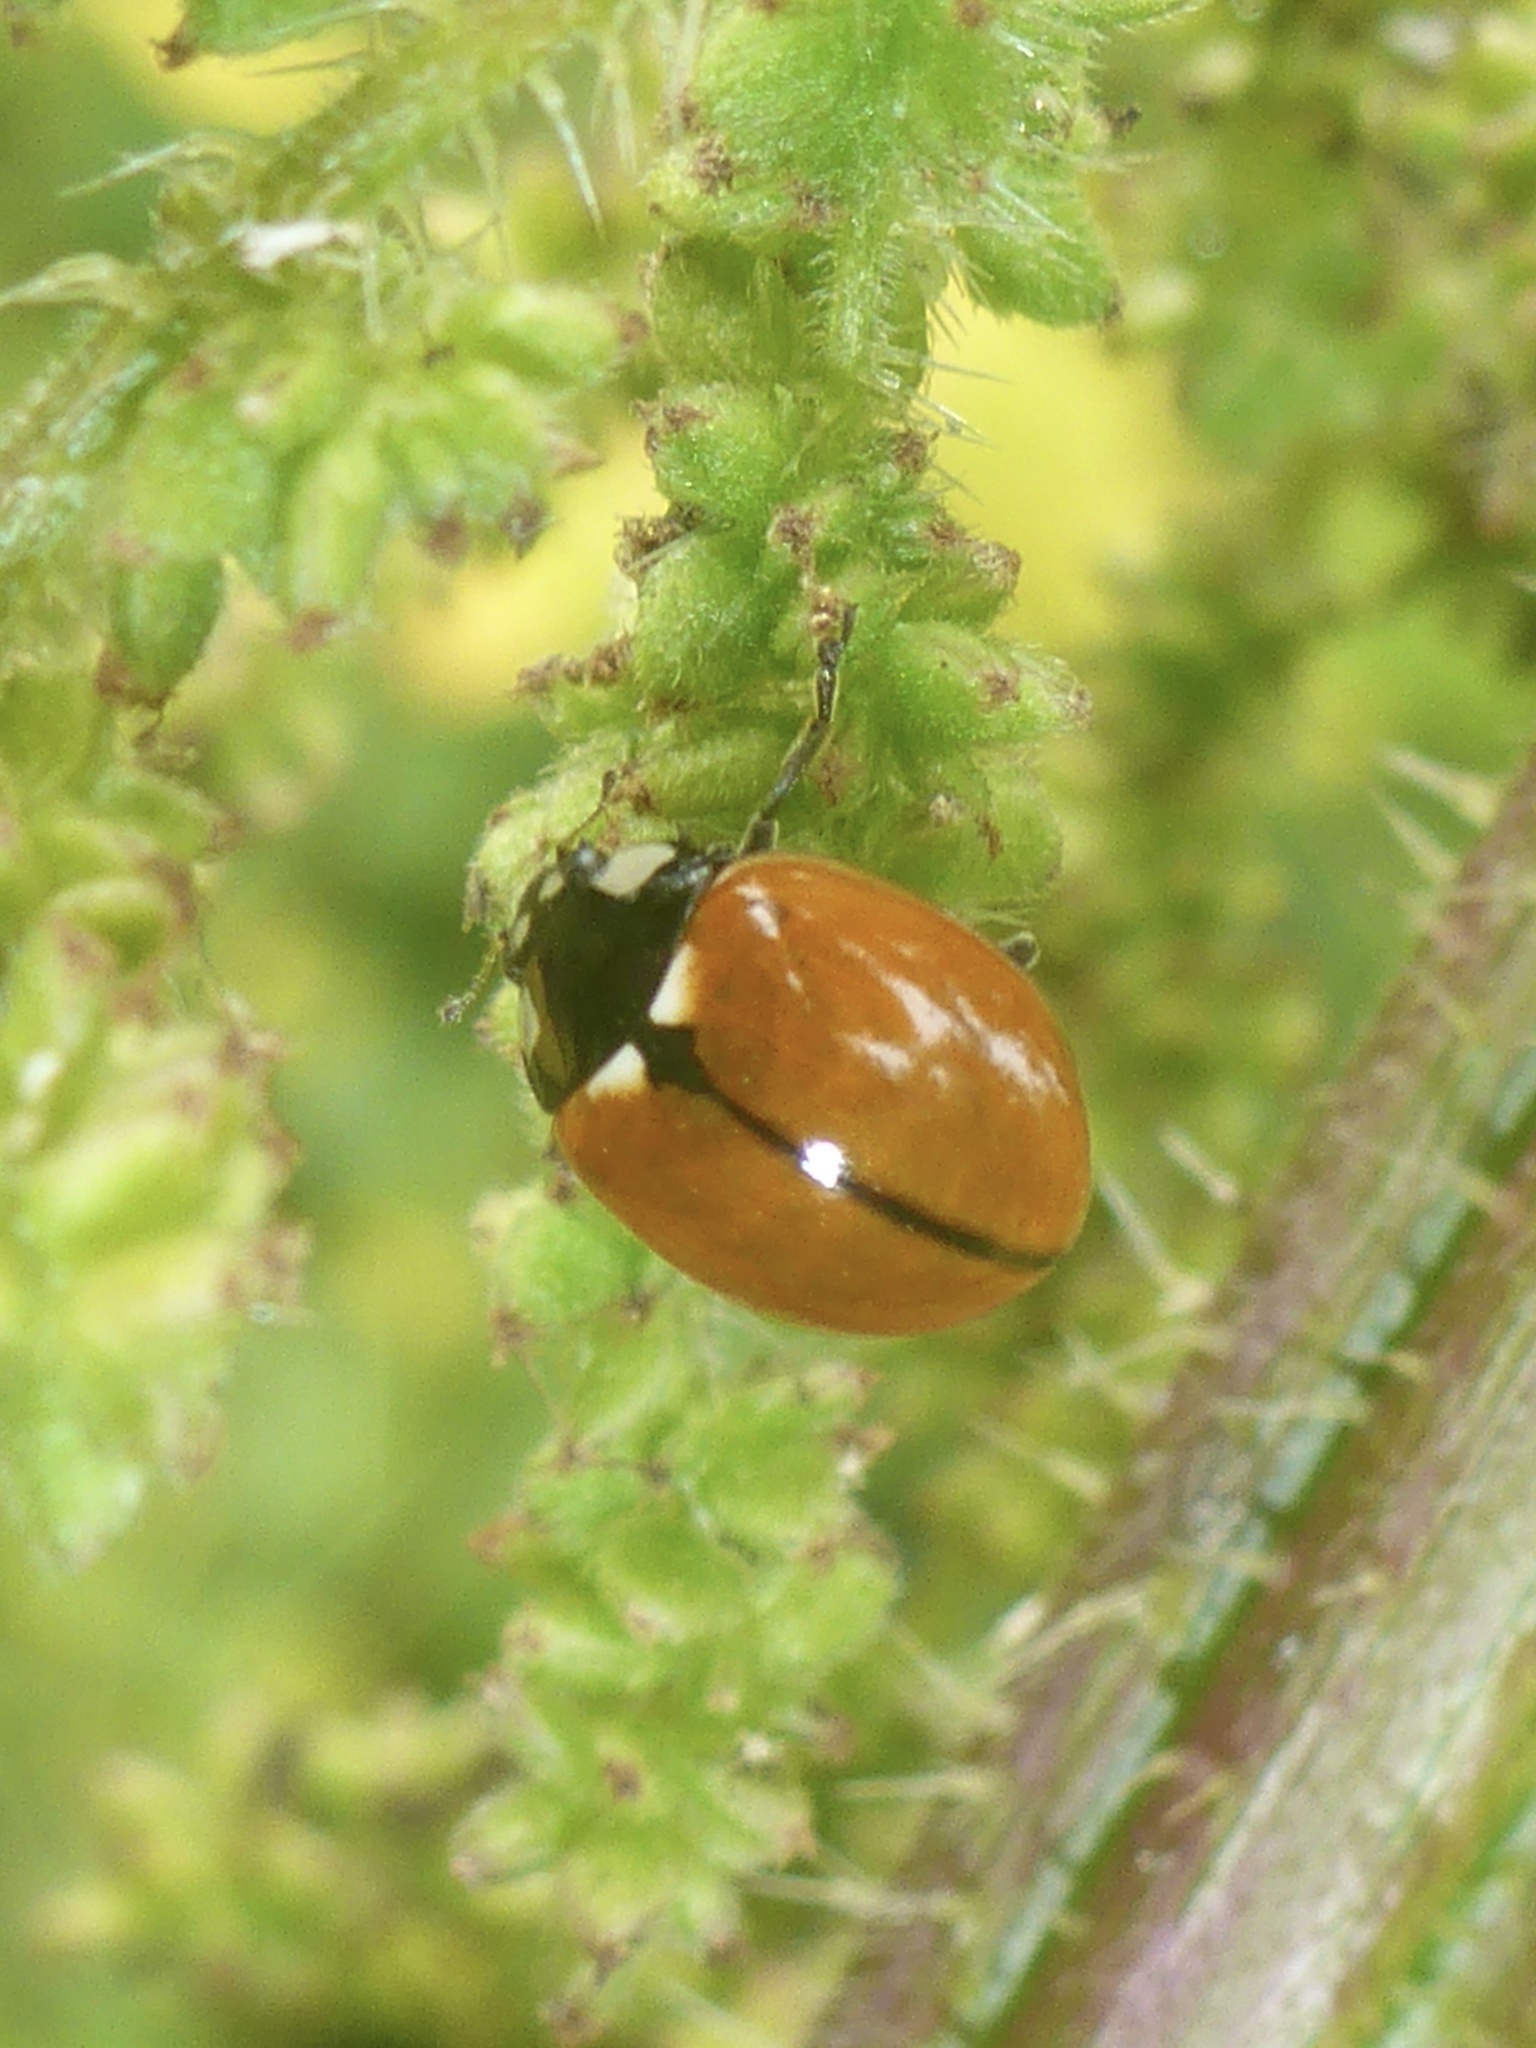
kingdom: Animalia
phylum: Arthropoda
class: Insecta
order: Coleoptera
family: Coccinellidae
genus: Coccinella
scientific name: Coccinella californica
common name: Lady beetle
